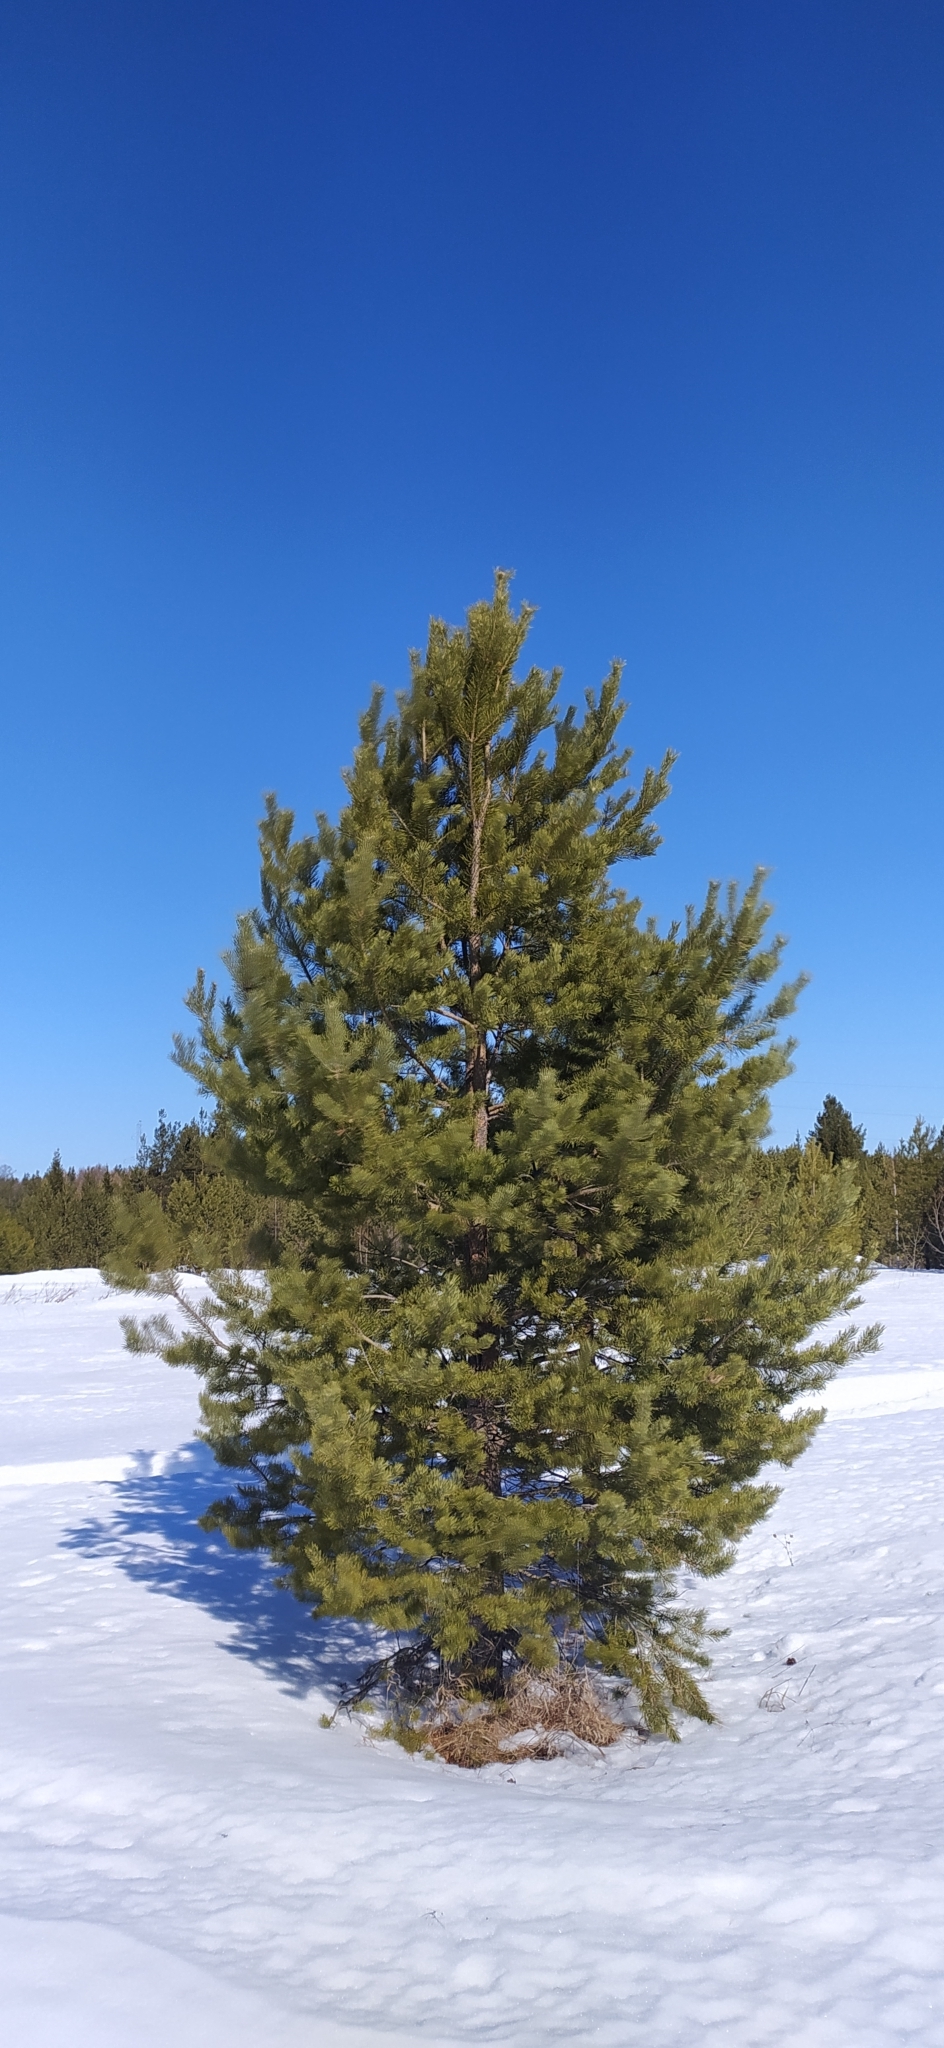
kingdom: Plantae
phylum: Tracheophyta
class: Pinopsida
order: Pinales
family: Pinaceae
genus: Pinus
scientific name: Pinus sylvestris
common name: Scots pine
